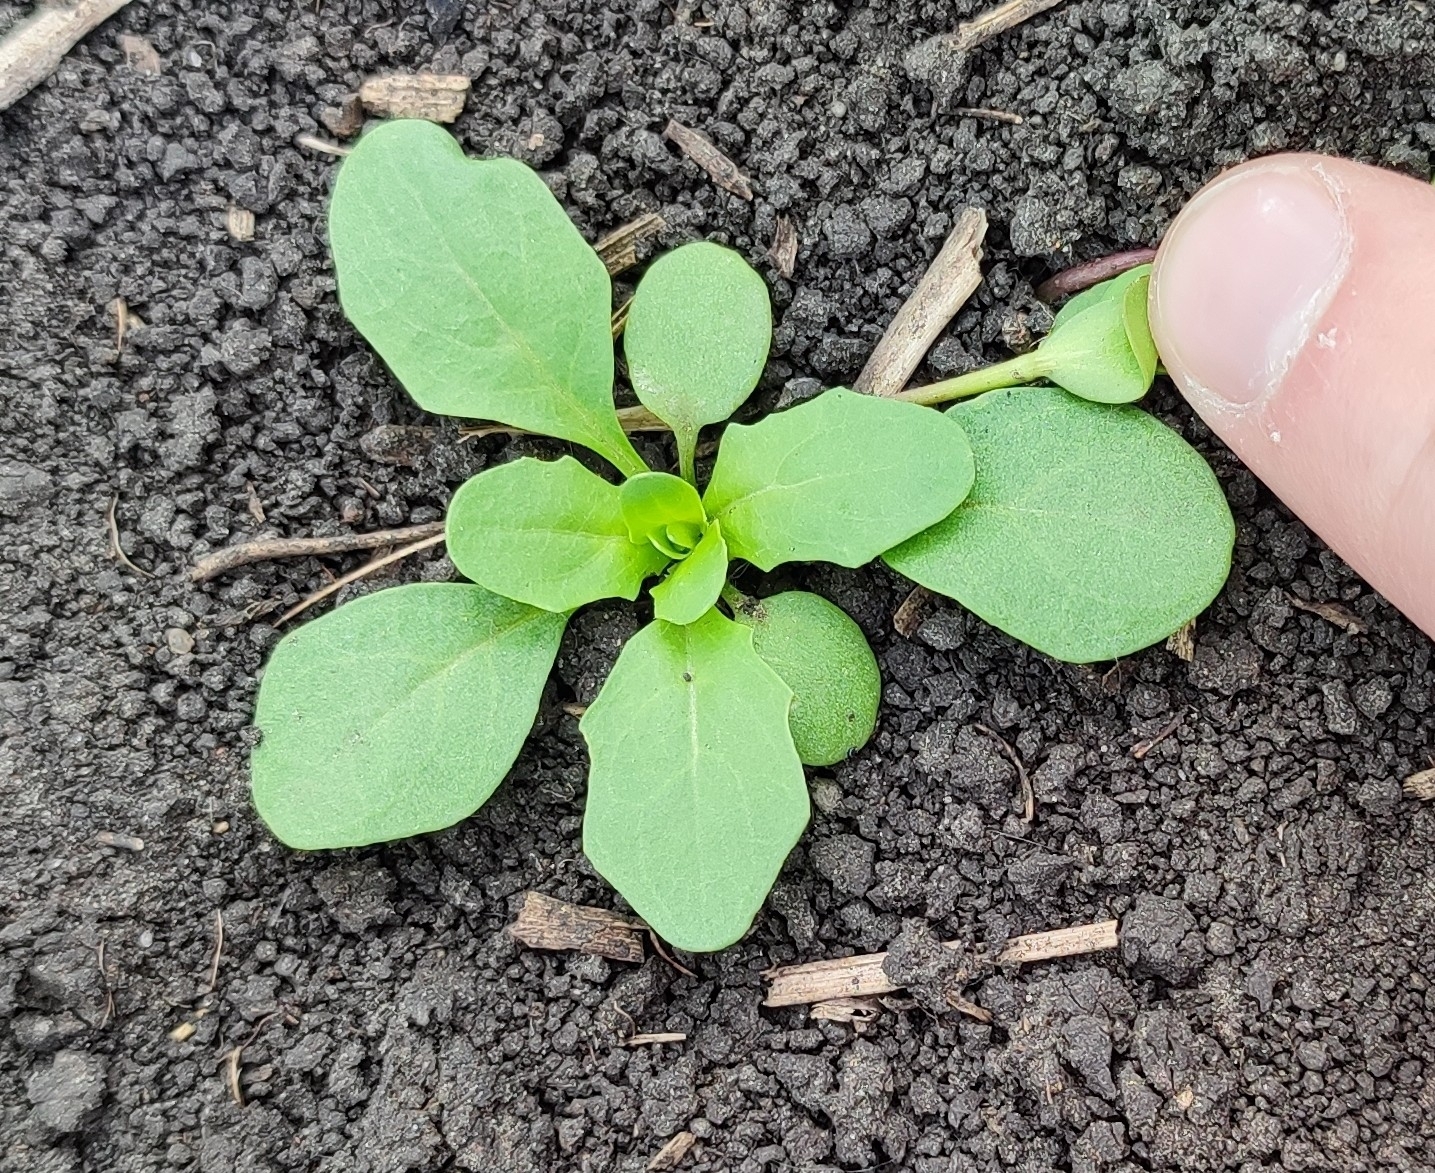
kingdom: Plantae
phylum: Tracheophyta
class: Magnoliopsida
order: Brassicales
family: Brassicaceae
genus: Thlaspi
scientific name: Thlaspi arvense
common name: Field pennycress
